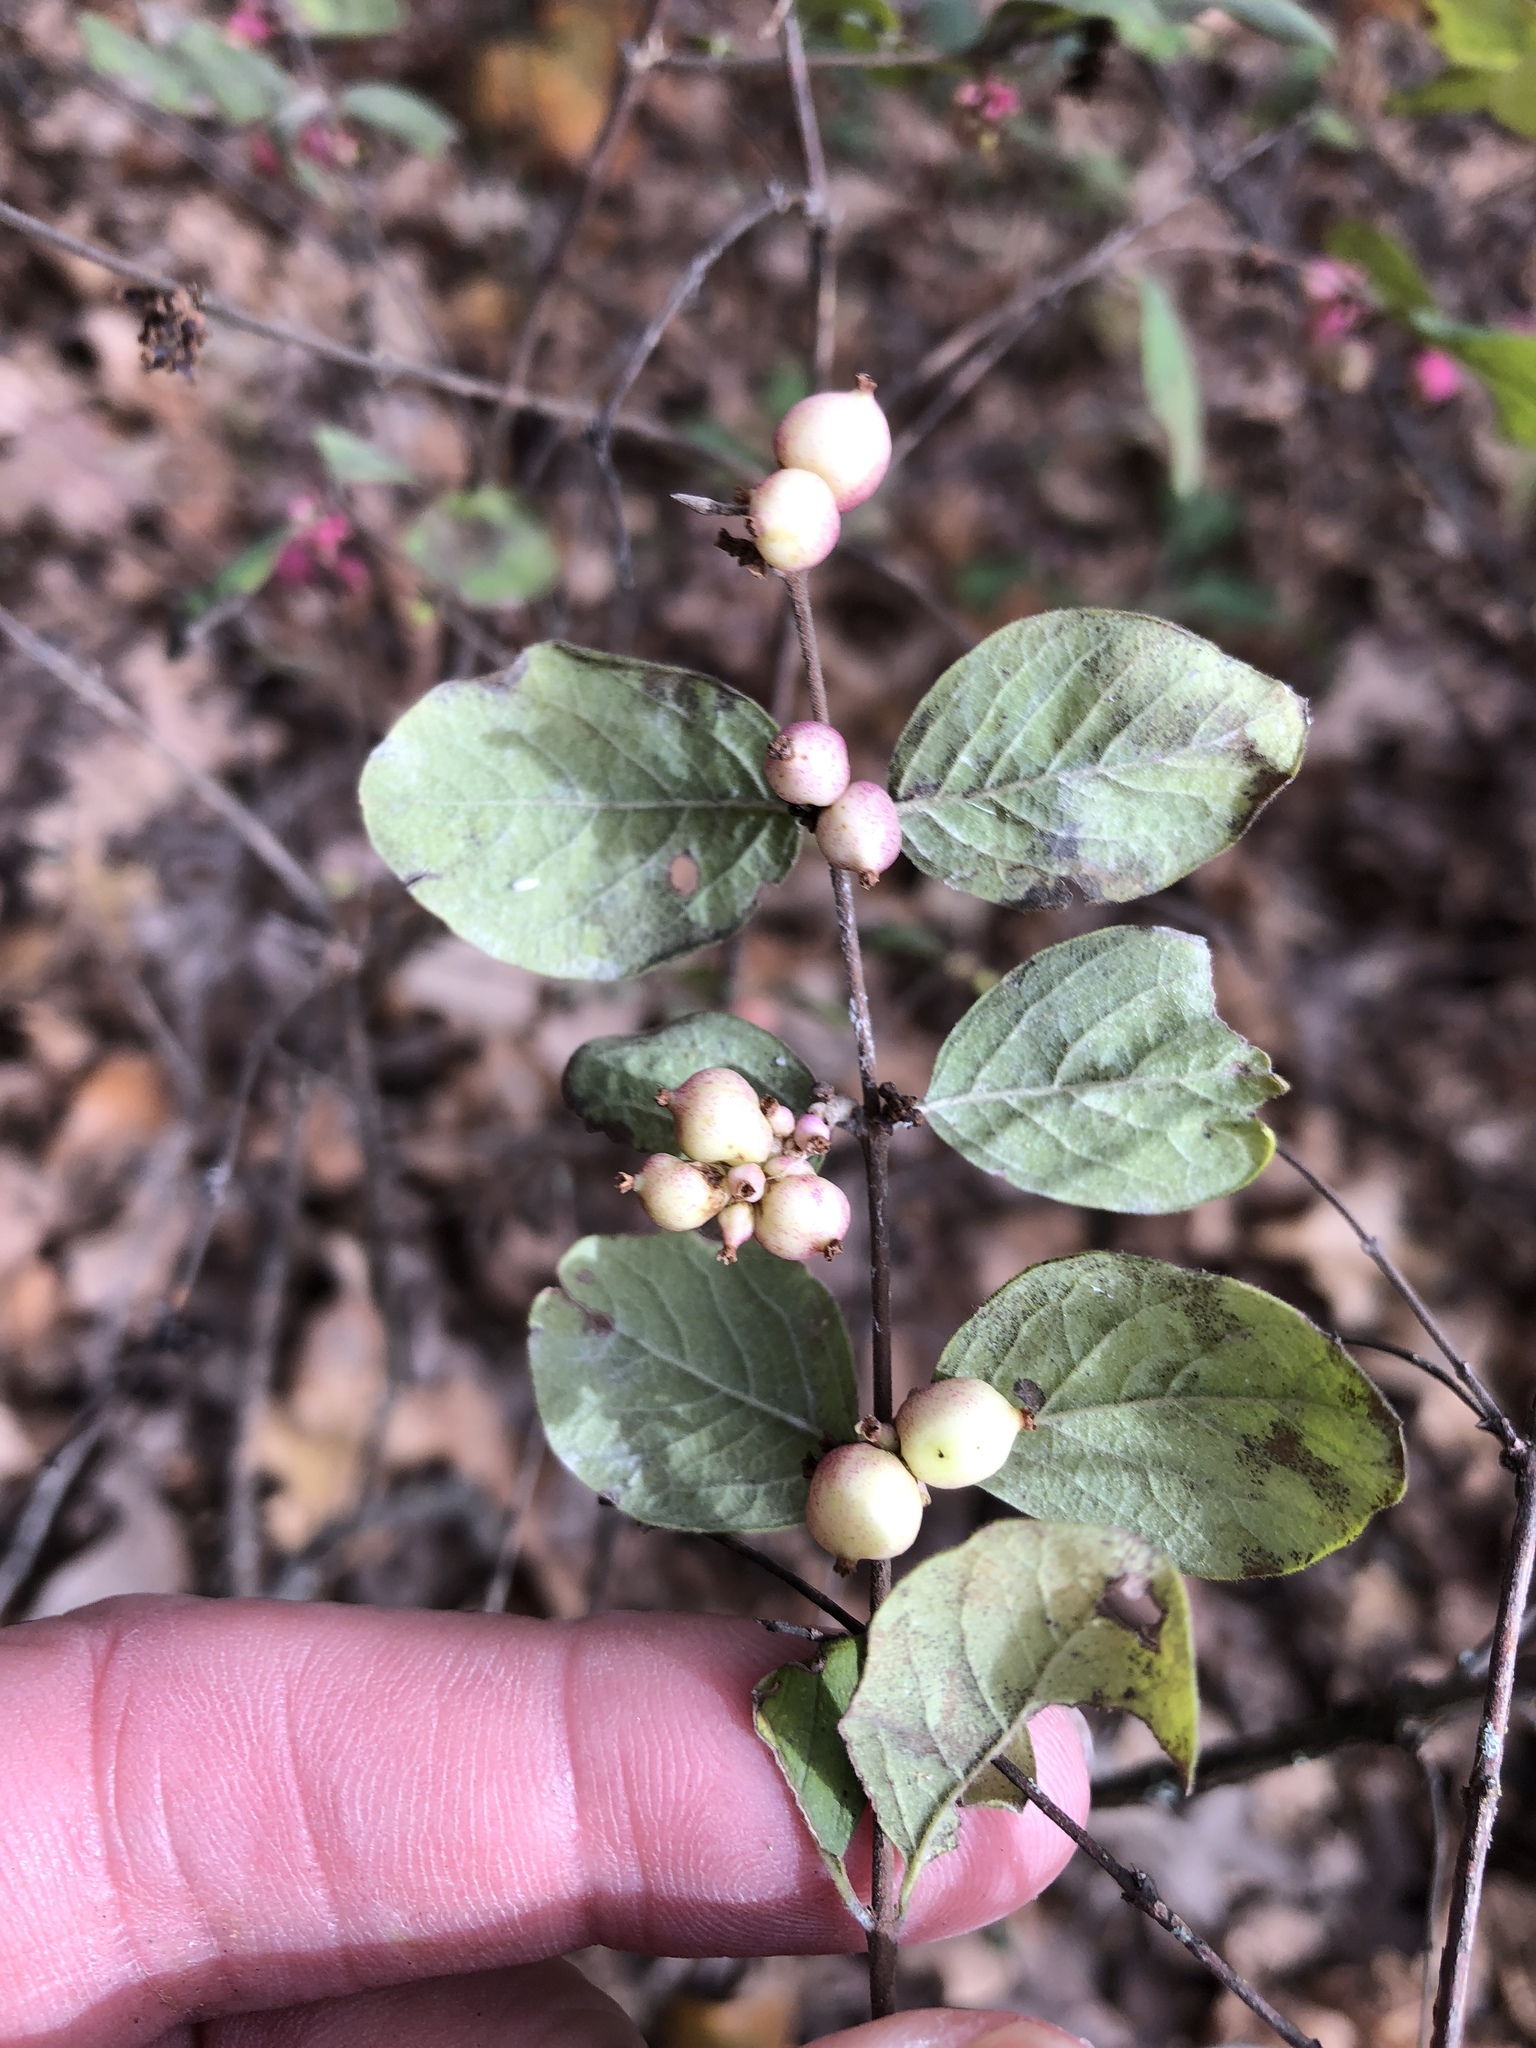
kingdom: Plantae
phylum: Tracheophyta
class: Magnoliopsida
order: Dipsacales
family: Caprifoliaceae
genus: Symphoricarpos
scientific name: Symphoricarpos orbiculatus
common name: Coralberry
